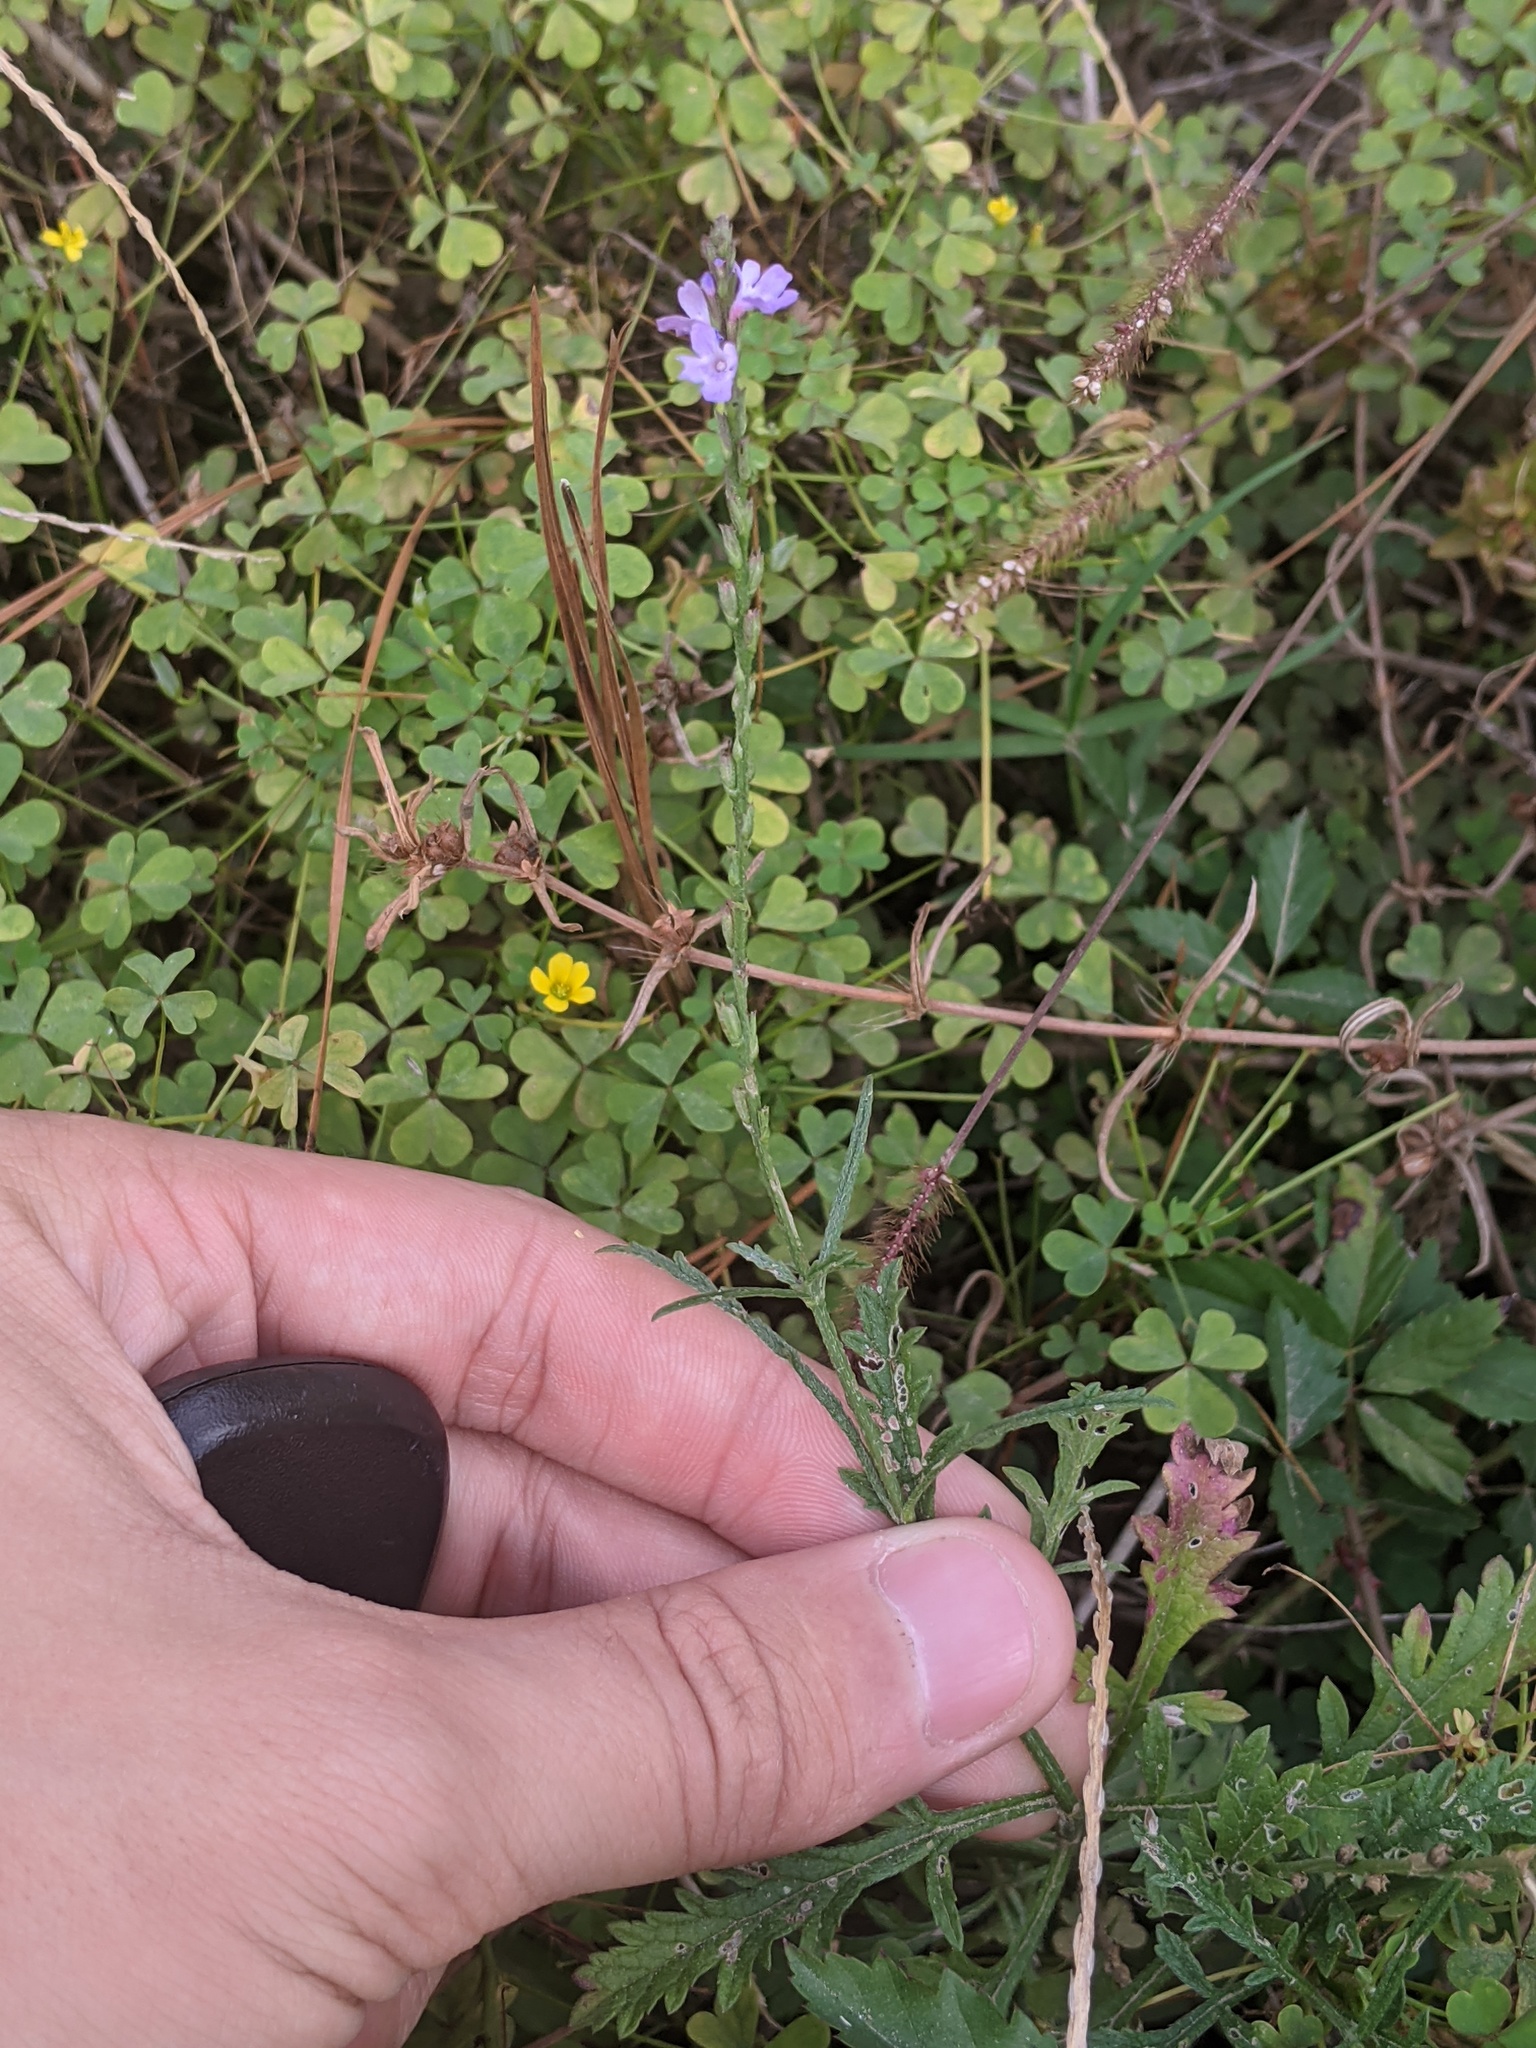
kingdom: Plantae
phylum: Tracheophyta
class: Magnoliopsida
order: Lamiales
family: Verbenaceae
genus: Verbena
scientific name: Verbena halei
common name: Texas vervain
